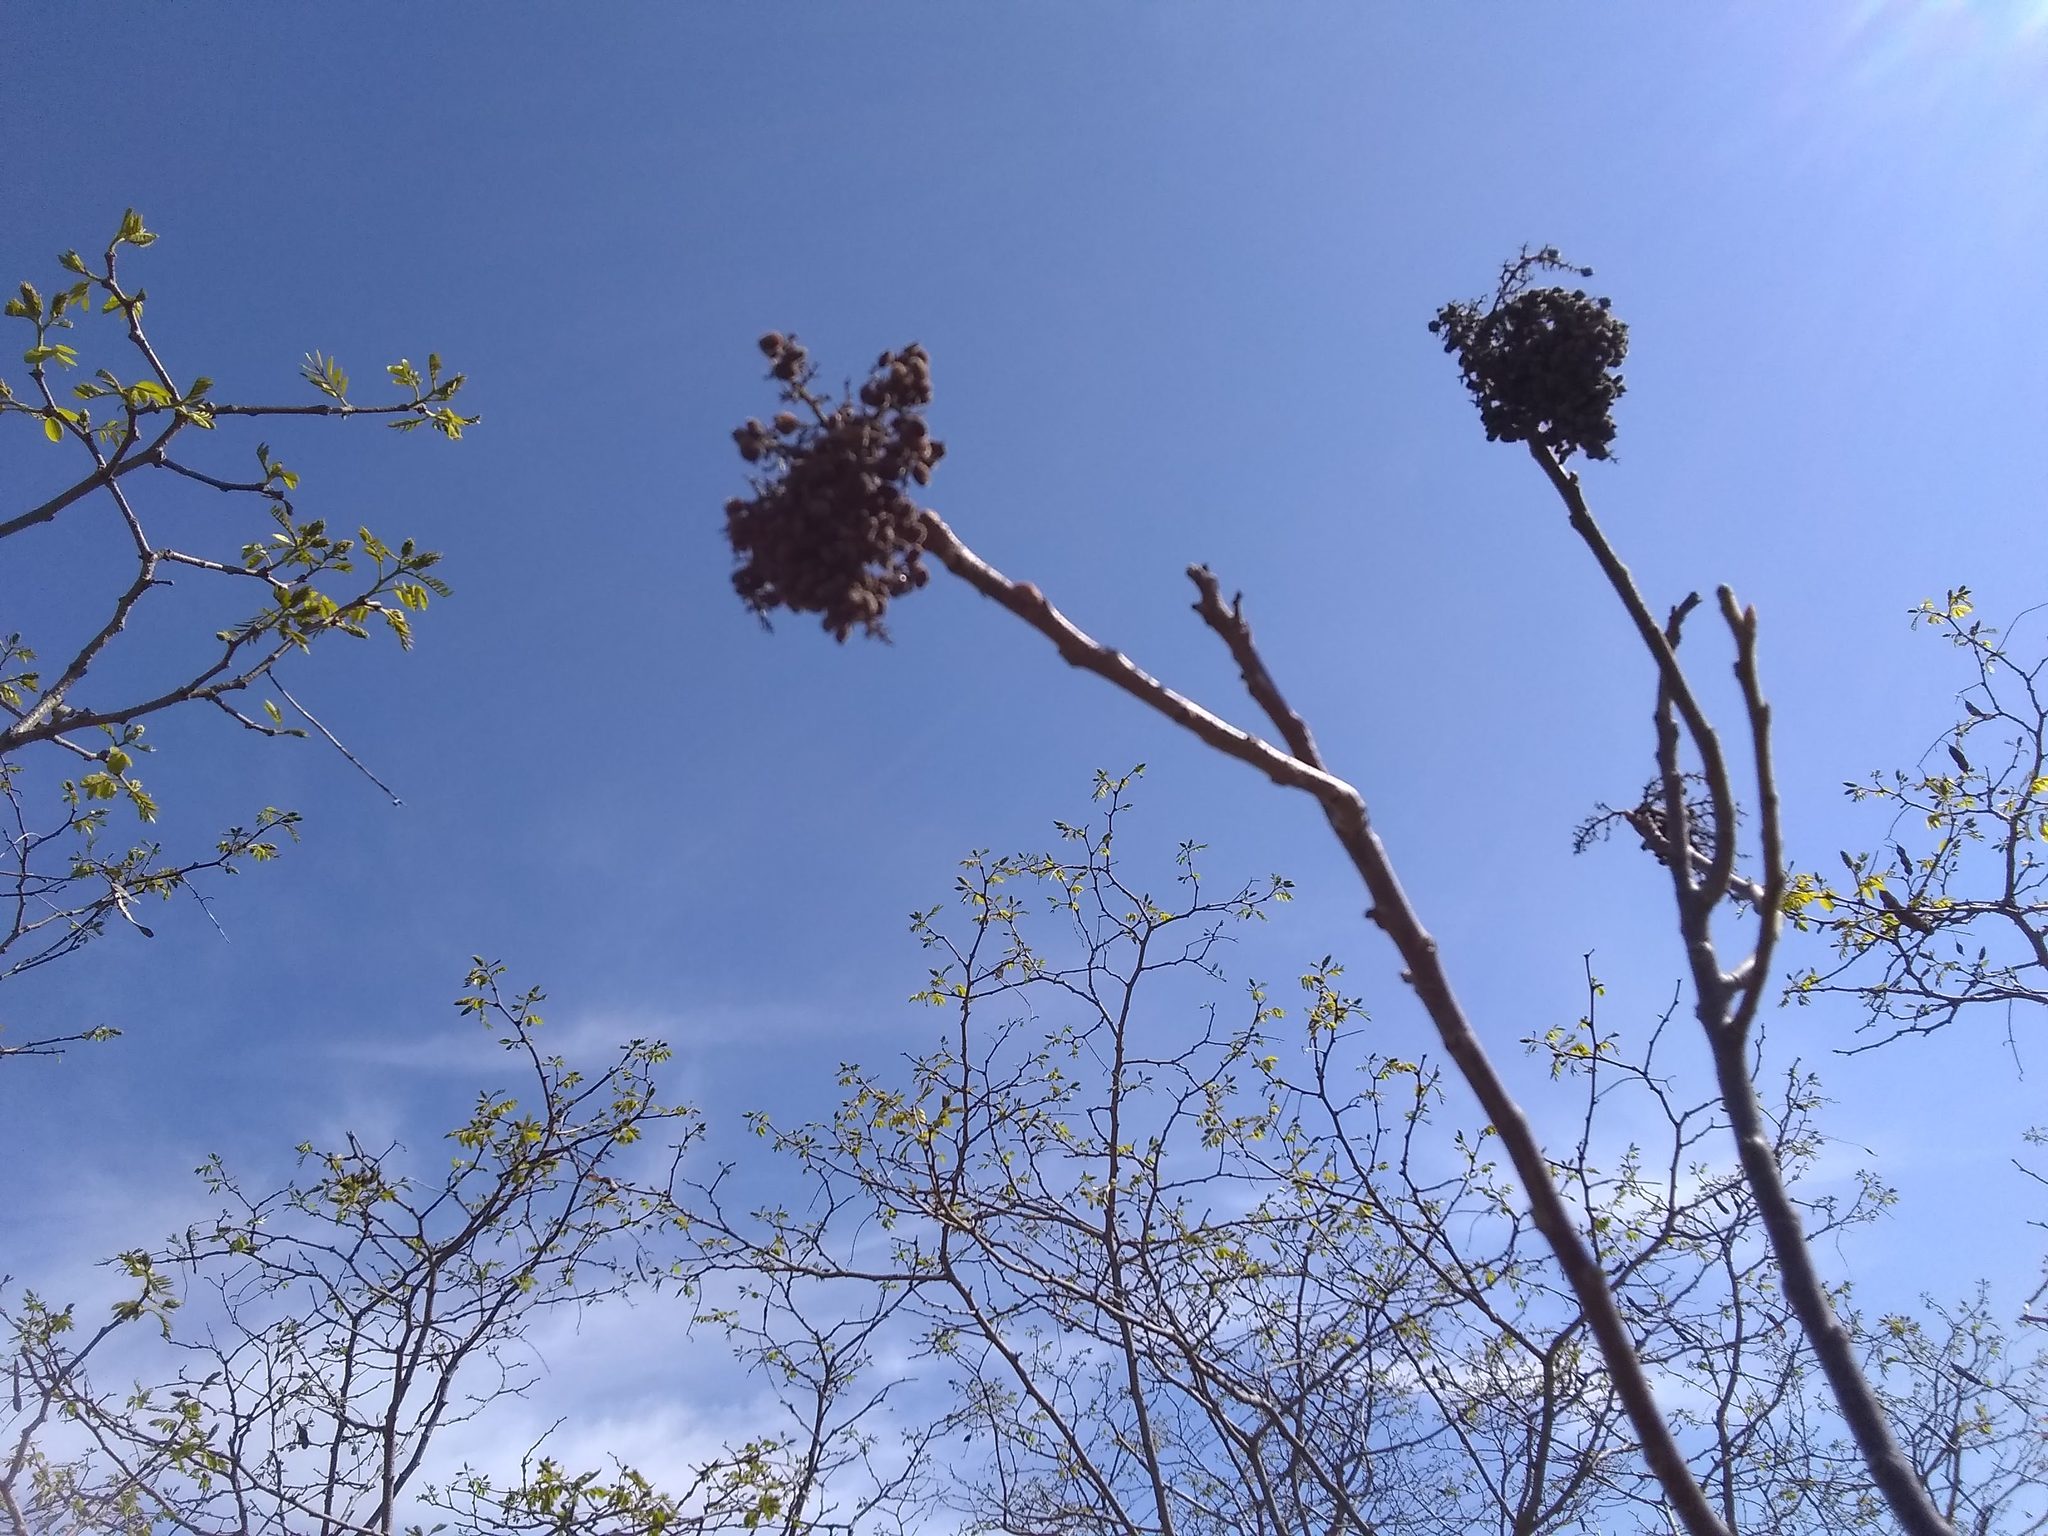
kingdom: Plantae
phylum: Tracheophyta
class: Magnoliopsida
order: Sapindales
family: Anacardiaceae
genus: Rhus
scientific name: Rhus copallina
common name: Shining sumac
